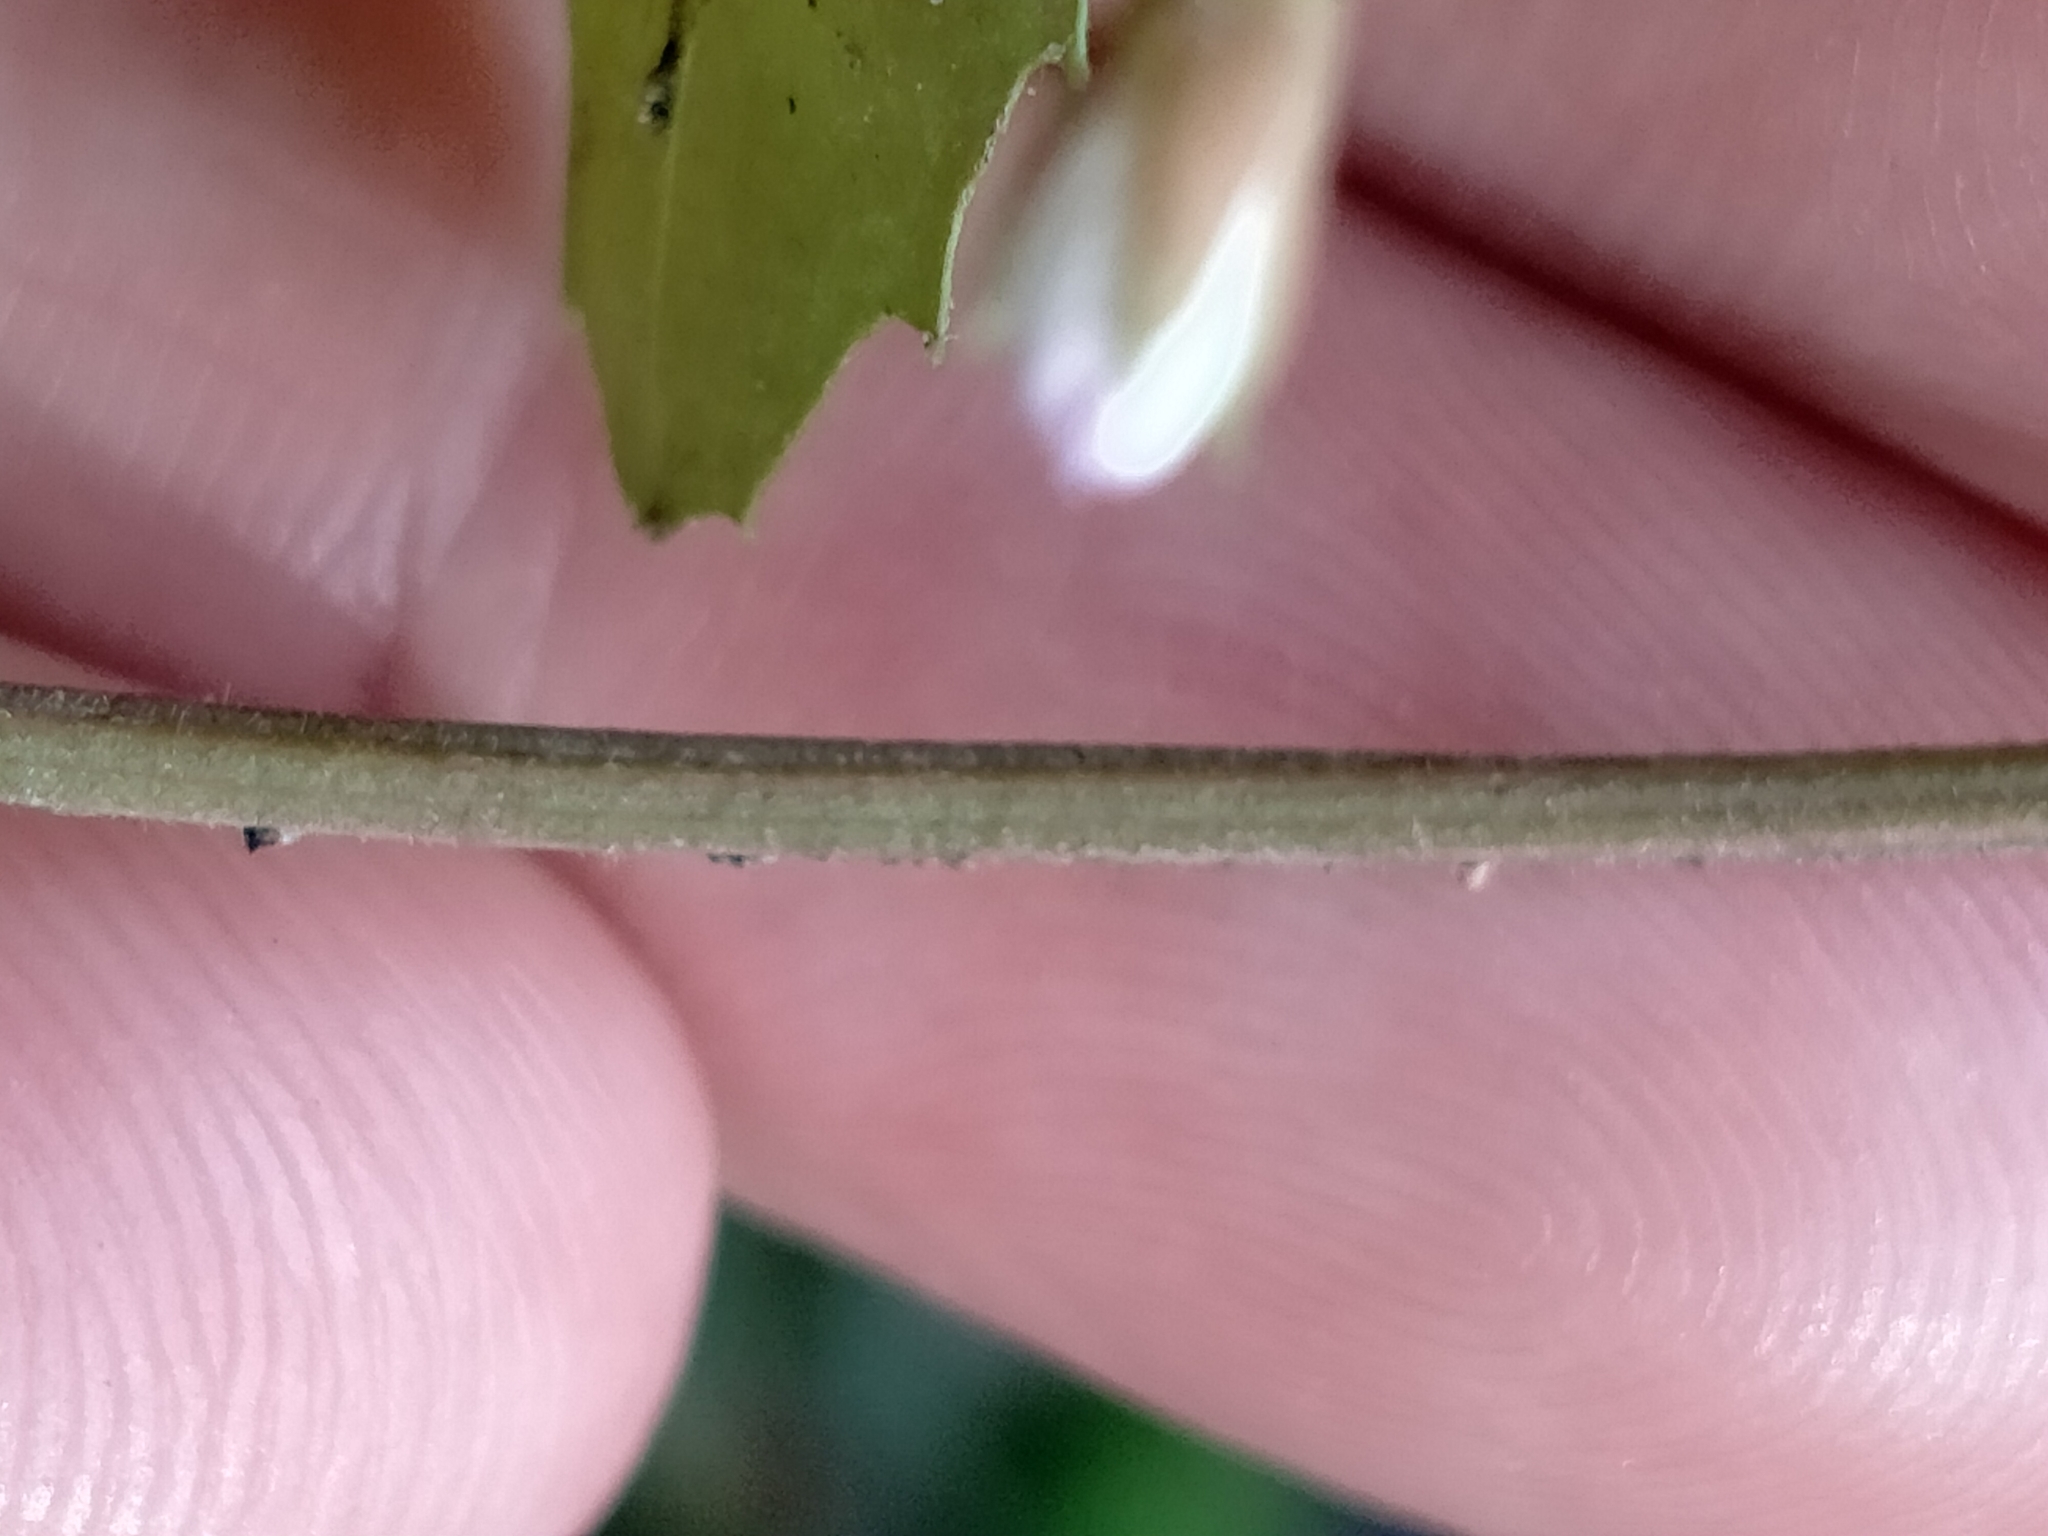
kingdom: Plantae
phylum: Tracheophyta
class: Magnoliopsida
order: Myrtales
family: Onagraceae
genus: Epilobium
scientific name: Epilobium rotundifolium
